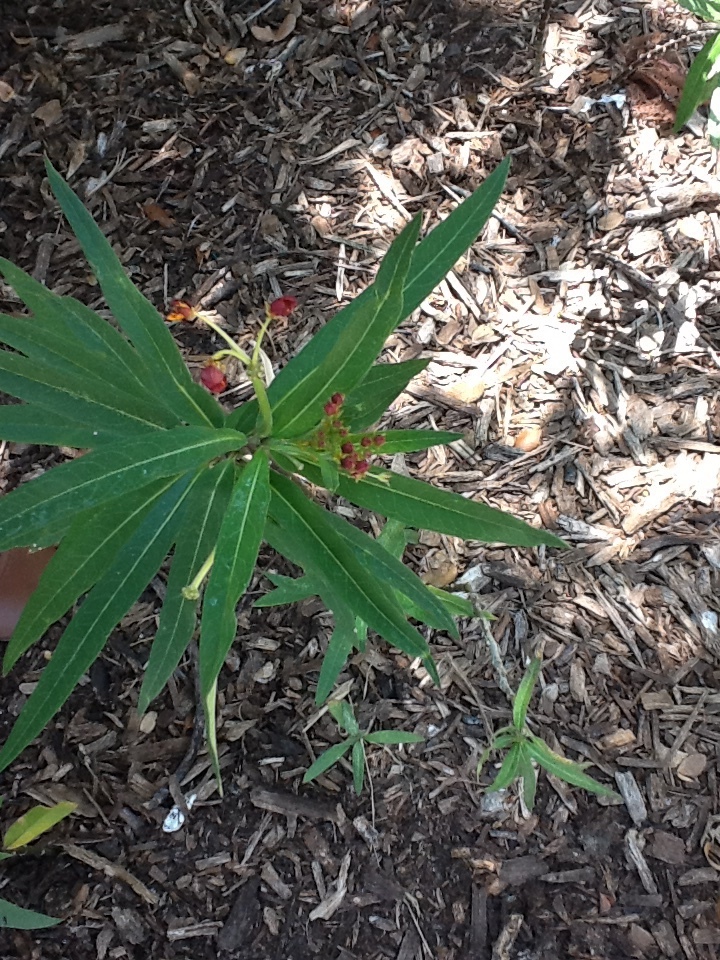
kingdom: Animalia
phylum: Arthropoda
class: Insecta
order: Hemiptera
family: Aphididae
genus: Aphis
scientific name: Aphis nerii
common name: Oleander aphid
